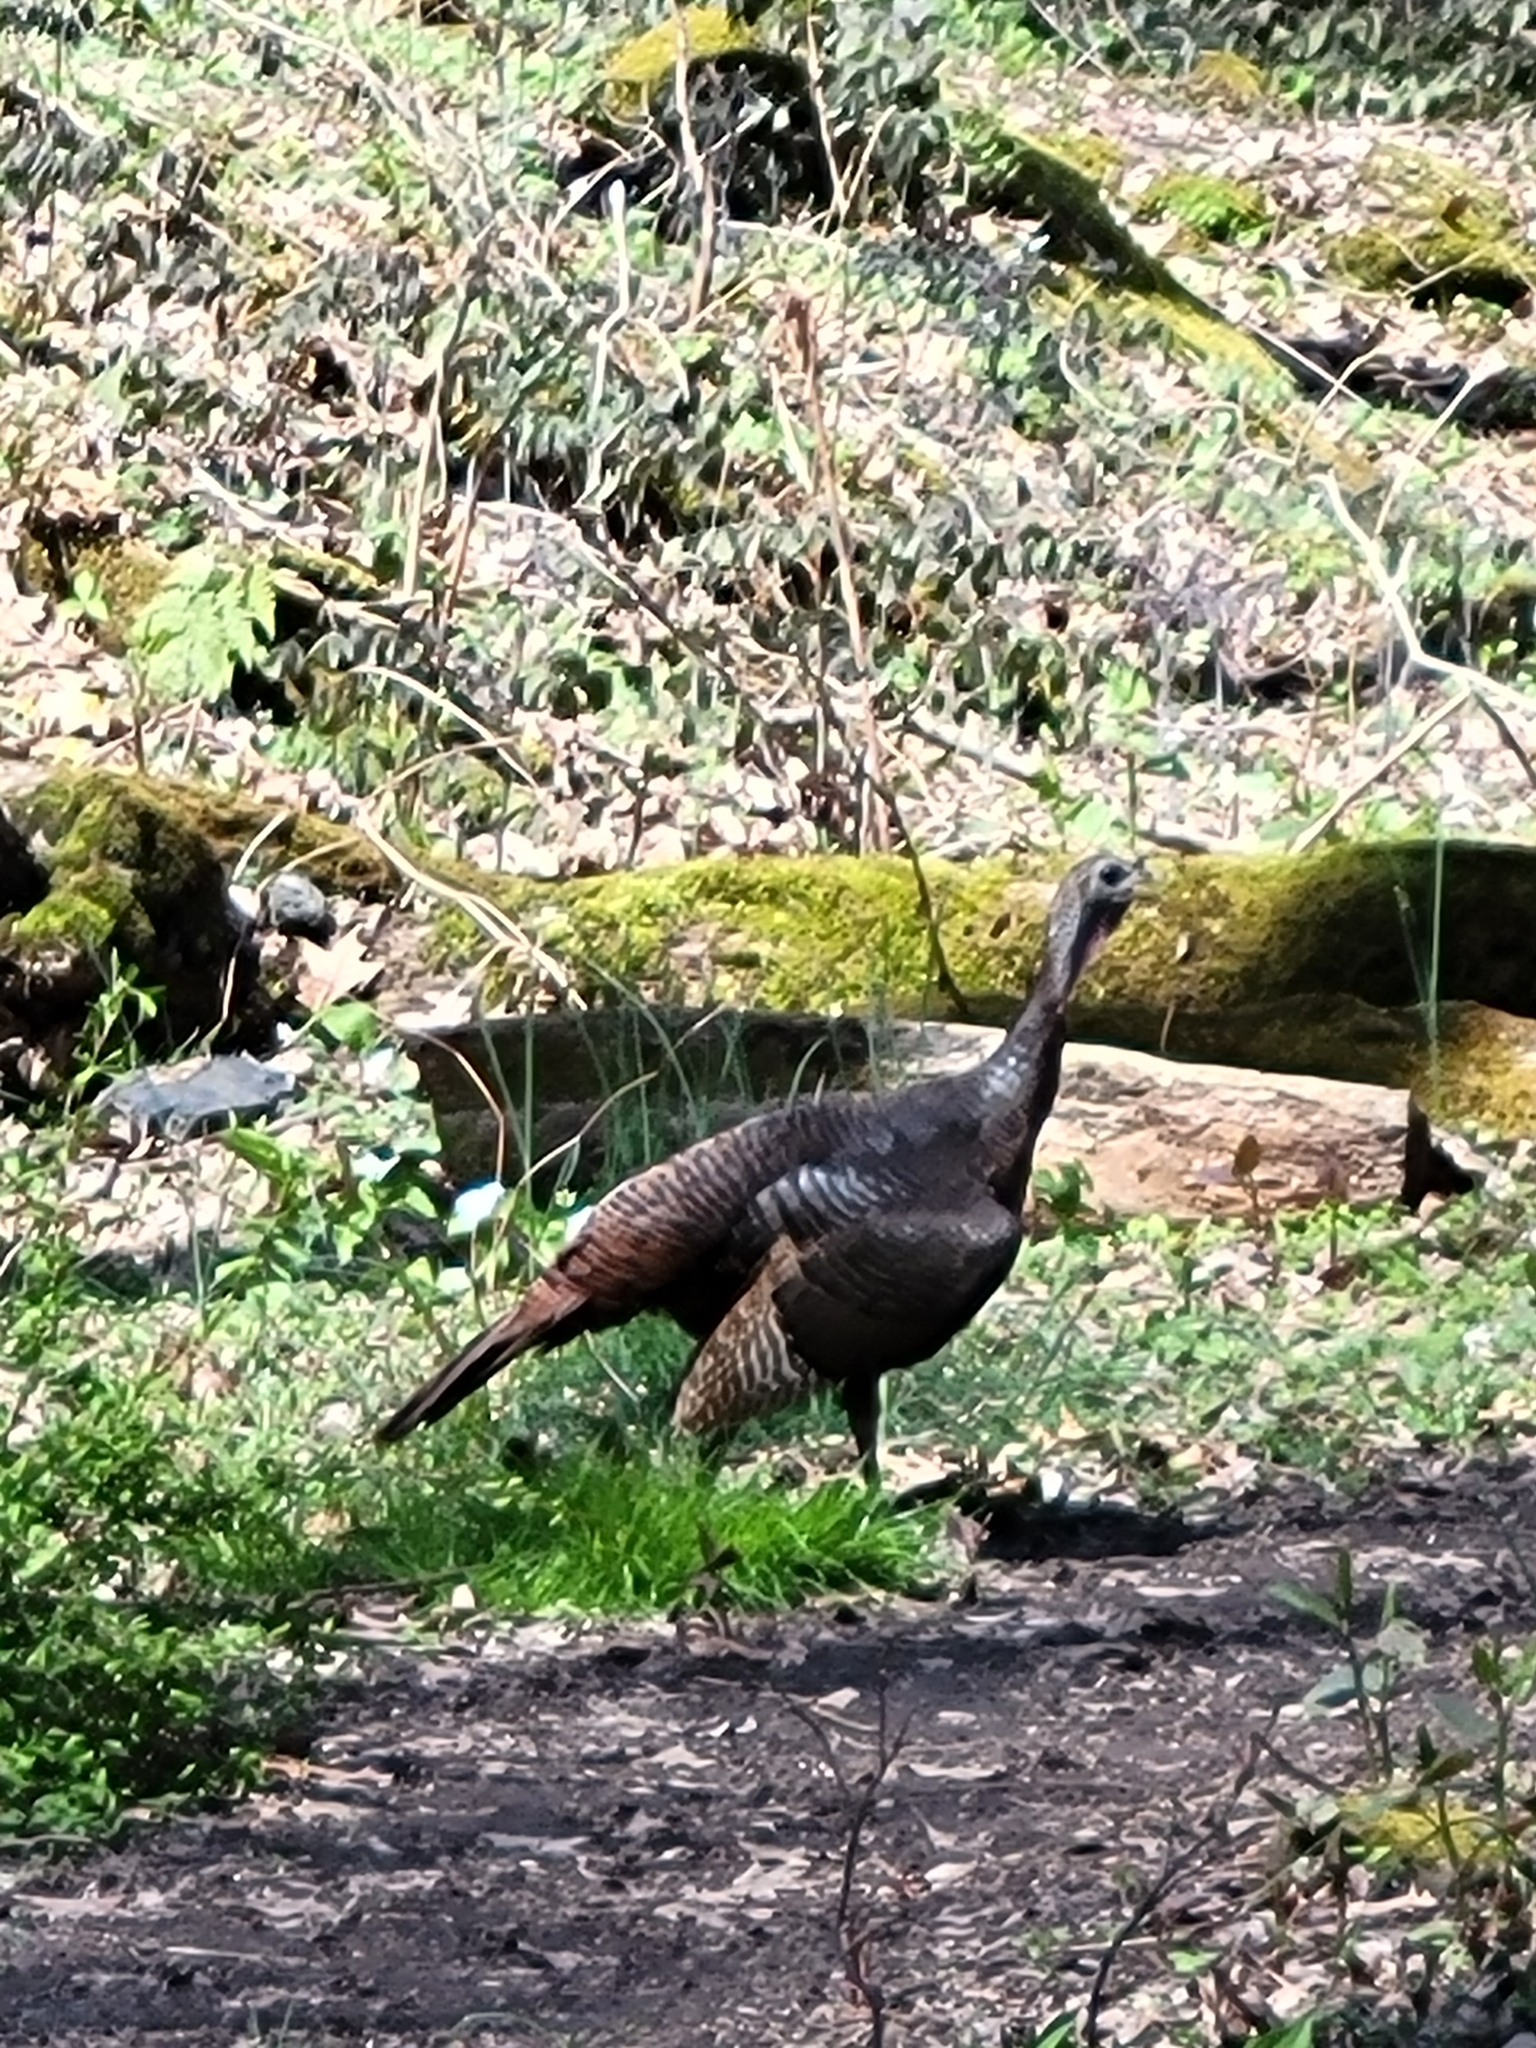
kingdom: Animalia
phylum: Chordata
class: Aves
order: Galliformes
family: Phasianidae
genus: Meleagris
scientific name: Meleagris gallopavo
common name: Wild turkey
